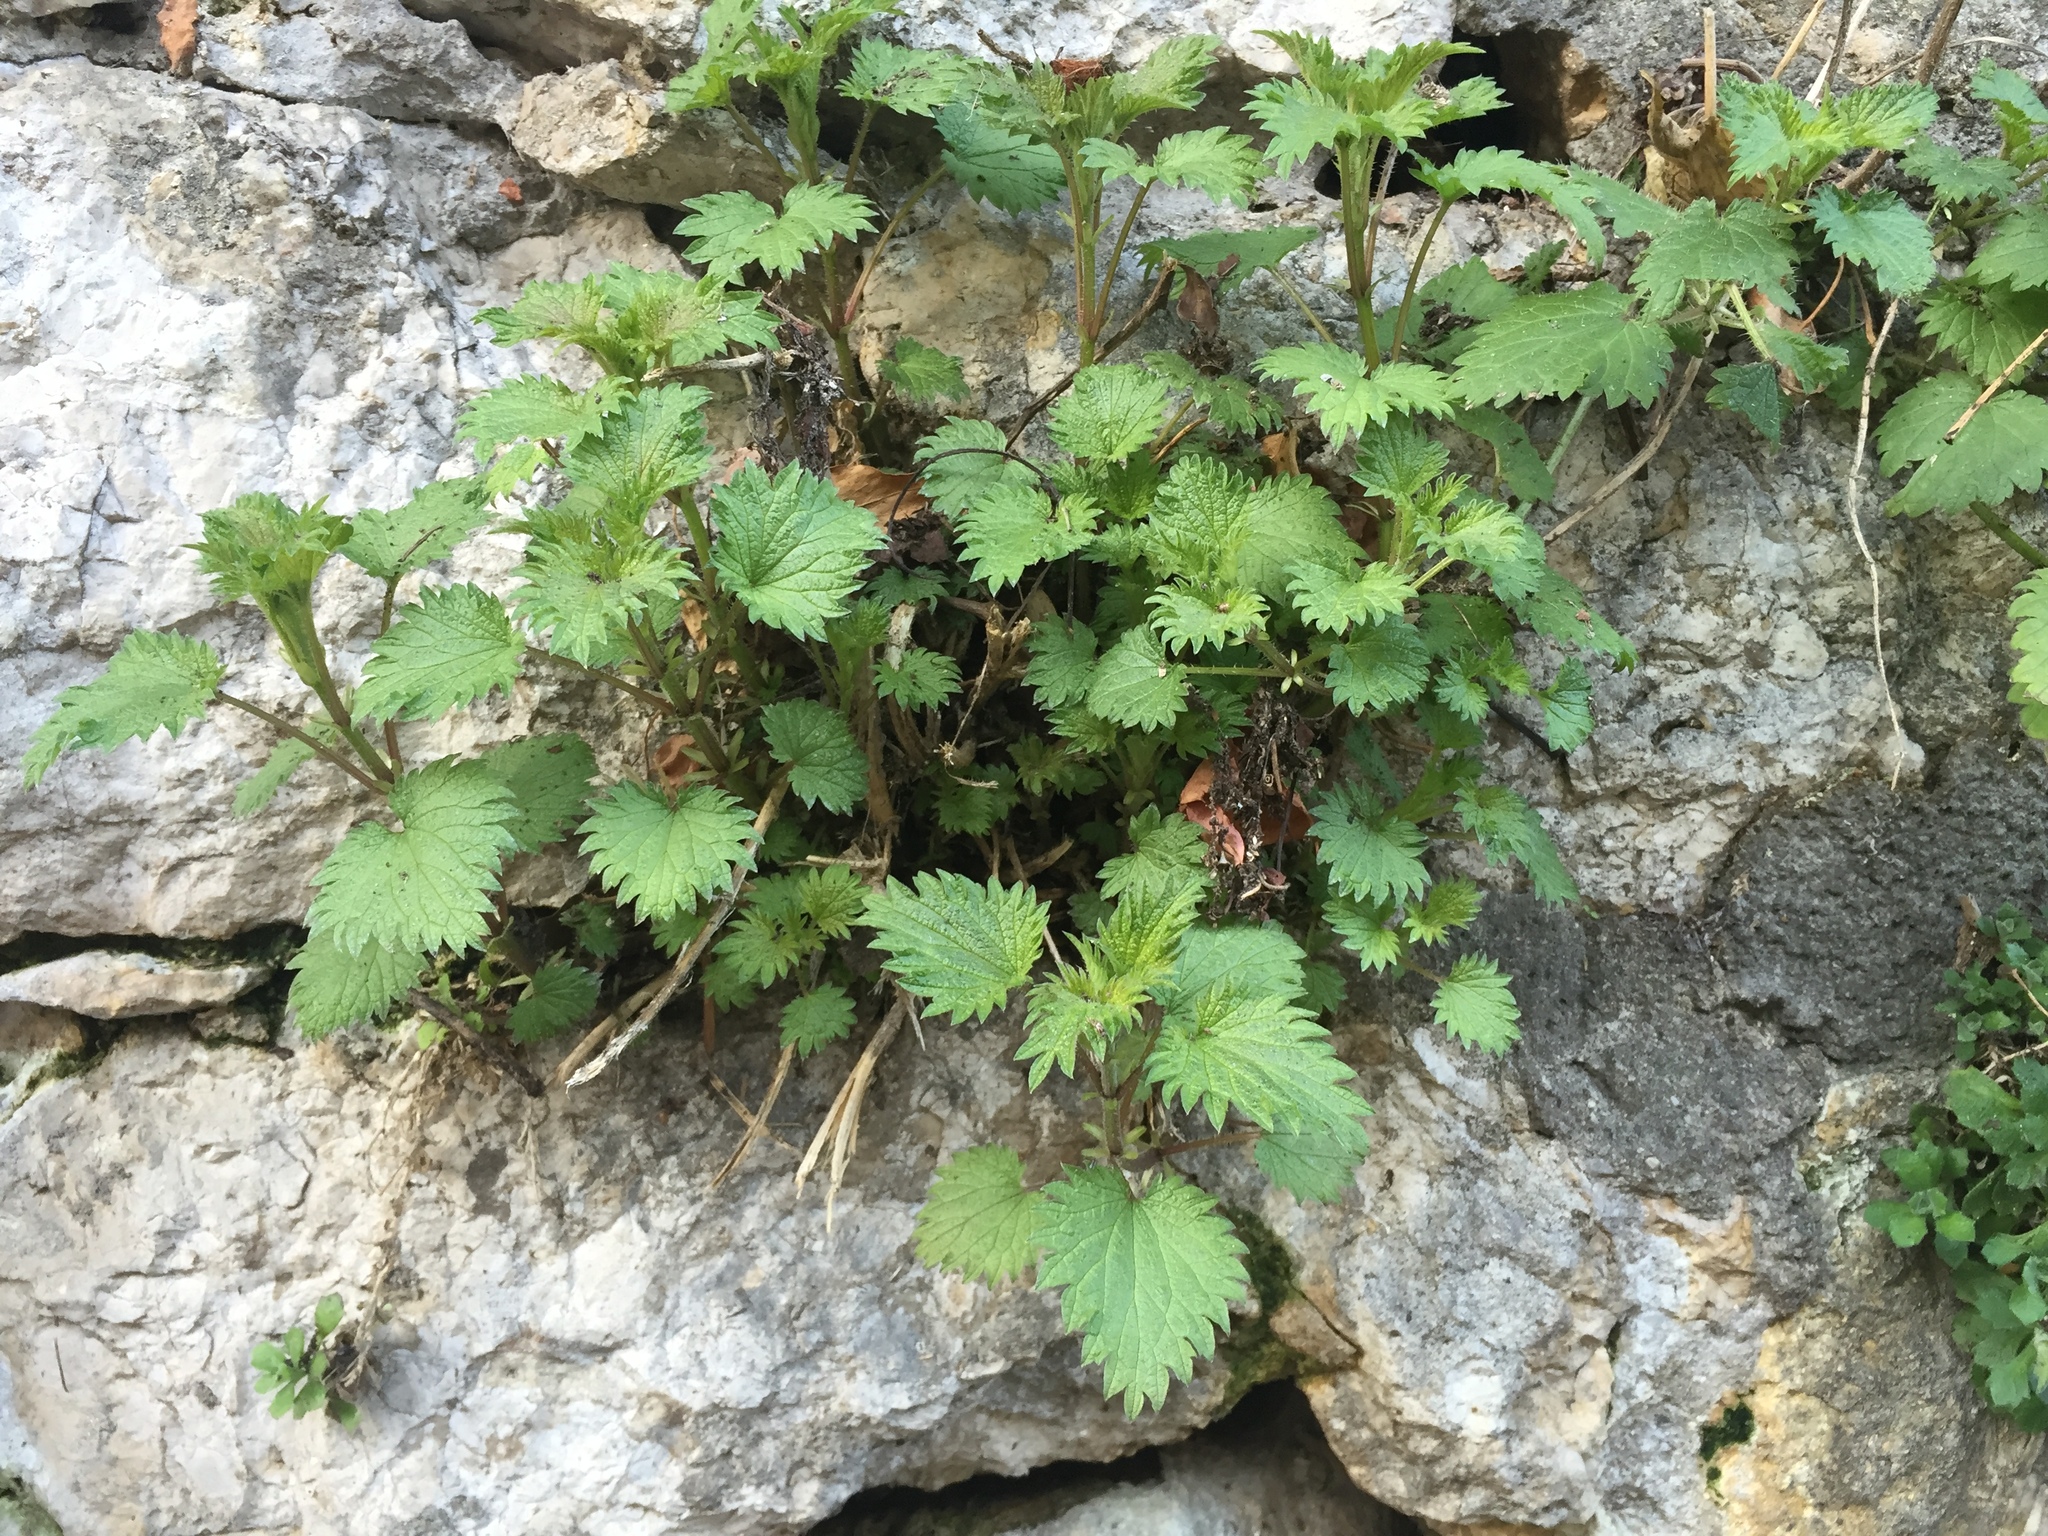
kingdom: Plantae
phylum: Tracheophyta
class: Magnoliopsida
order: Rosales
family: Urticaceae
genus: Urtica
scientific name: Urtica dioica
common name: Common nettle
